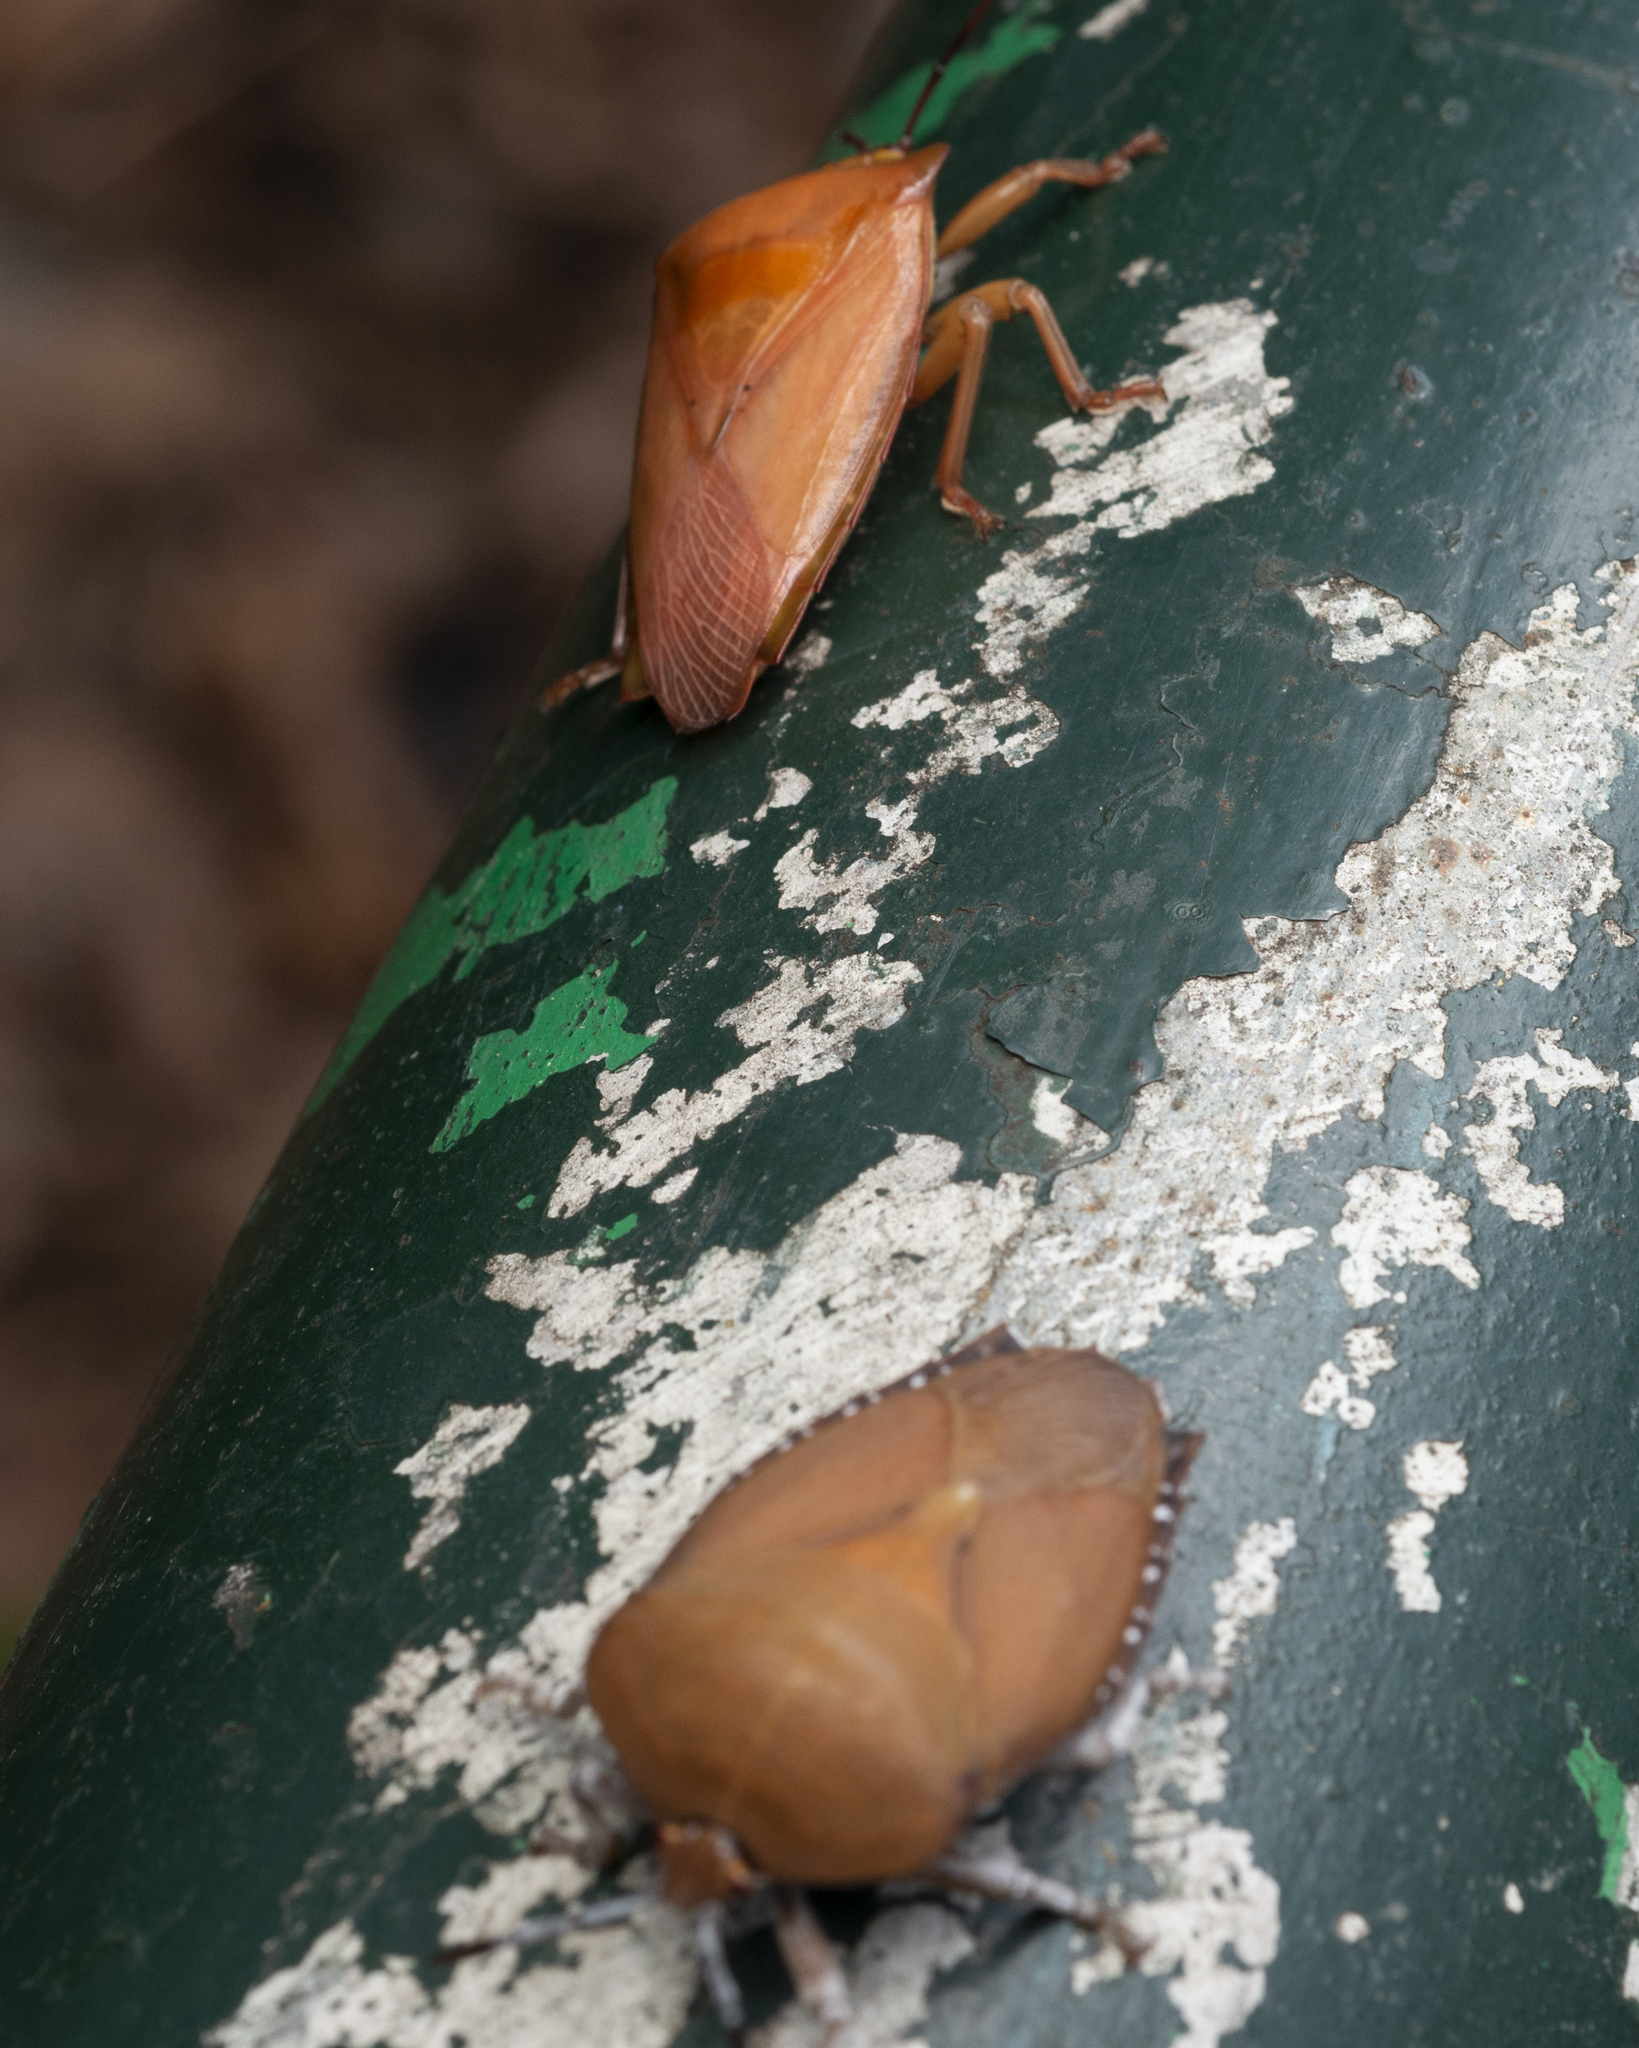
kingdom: Animalia
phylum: Arthropoda
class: Insecta
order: Hemiptera
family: Tessaratomidae
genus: Tessaratoma
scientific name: Tessaratoma papillosa
